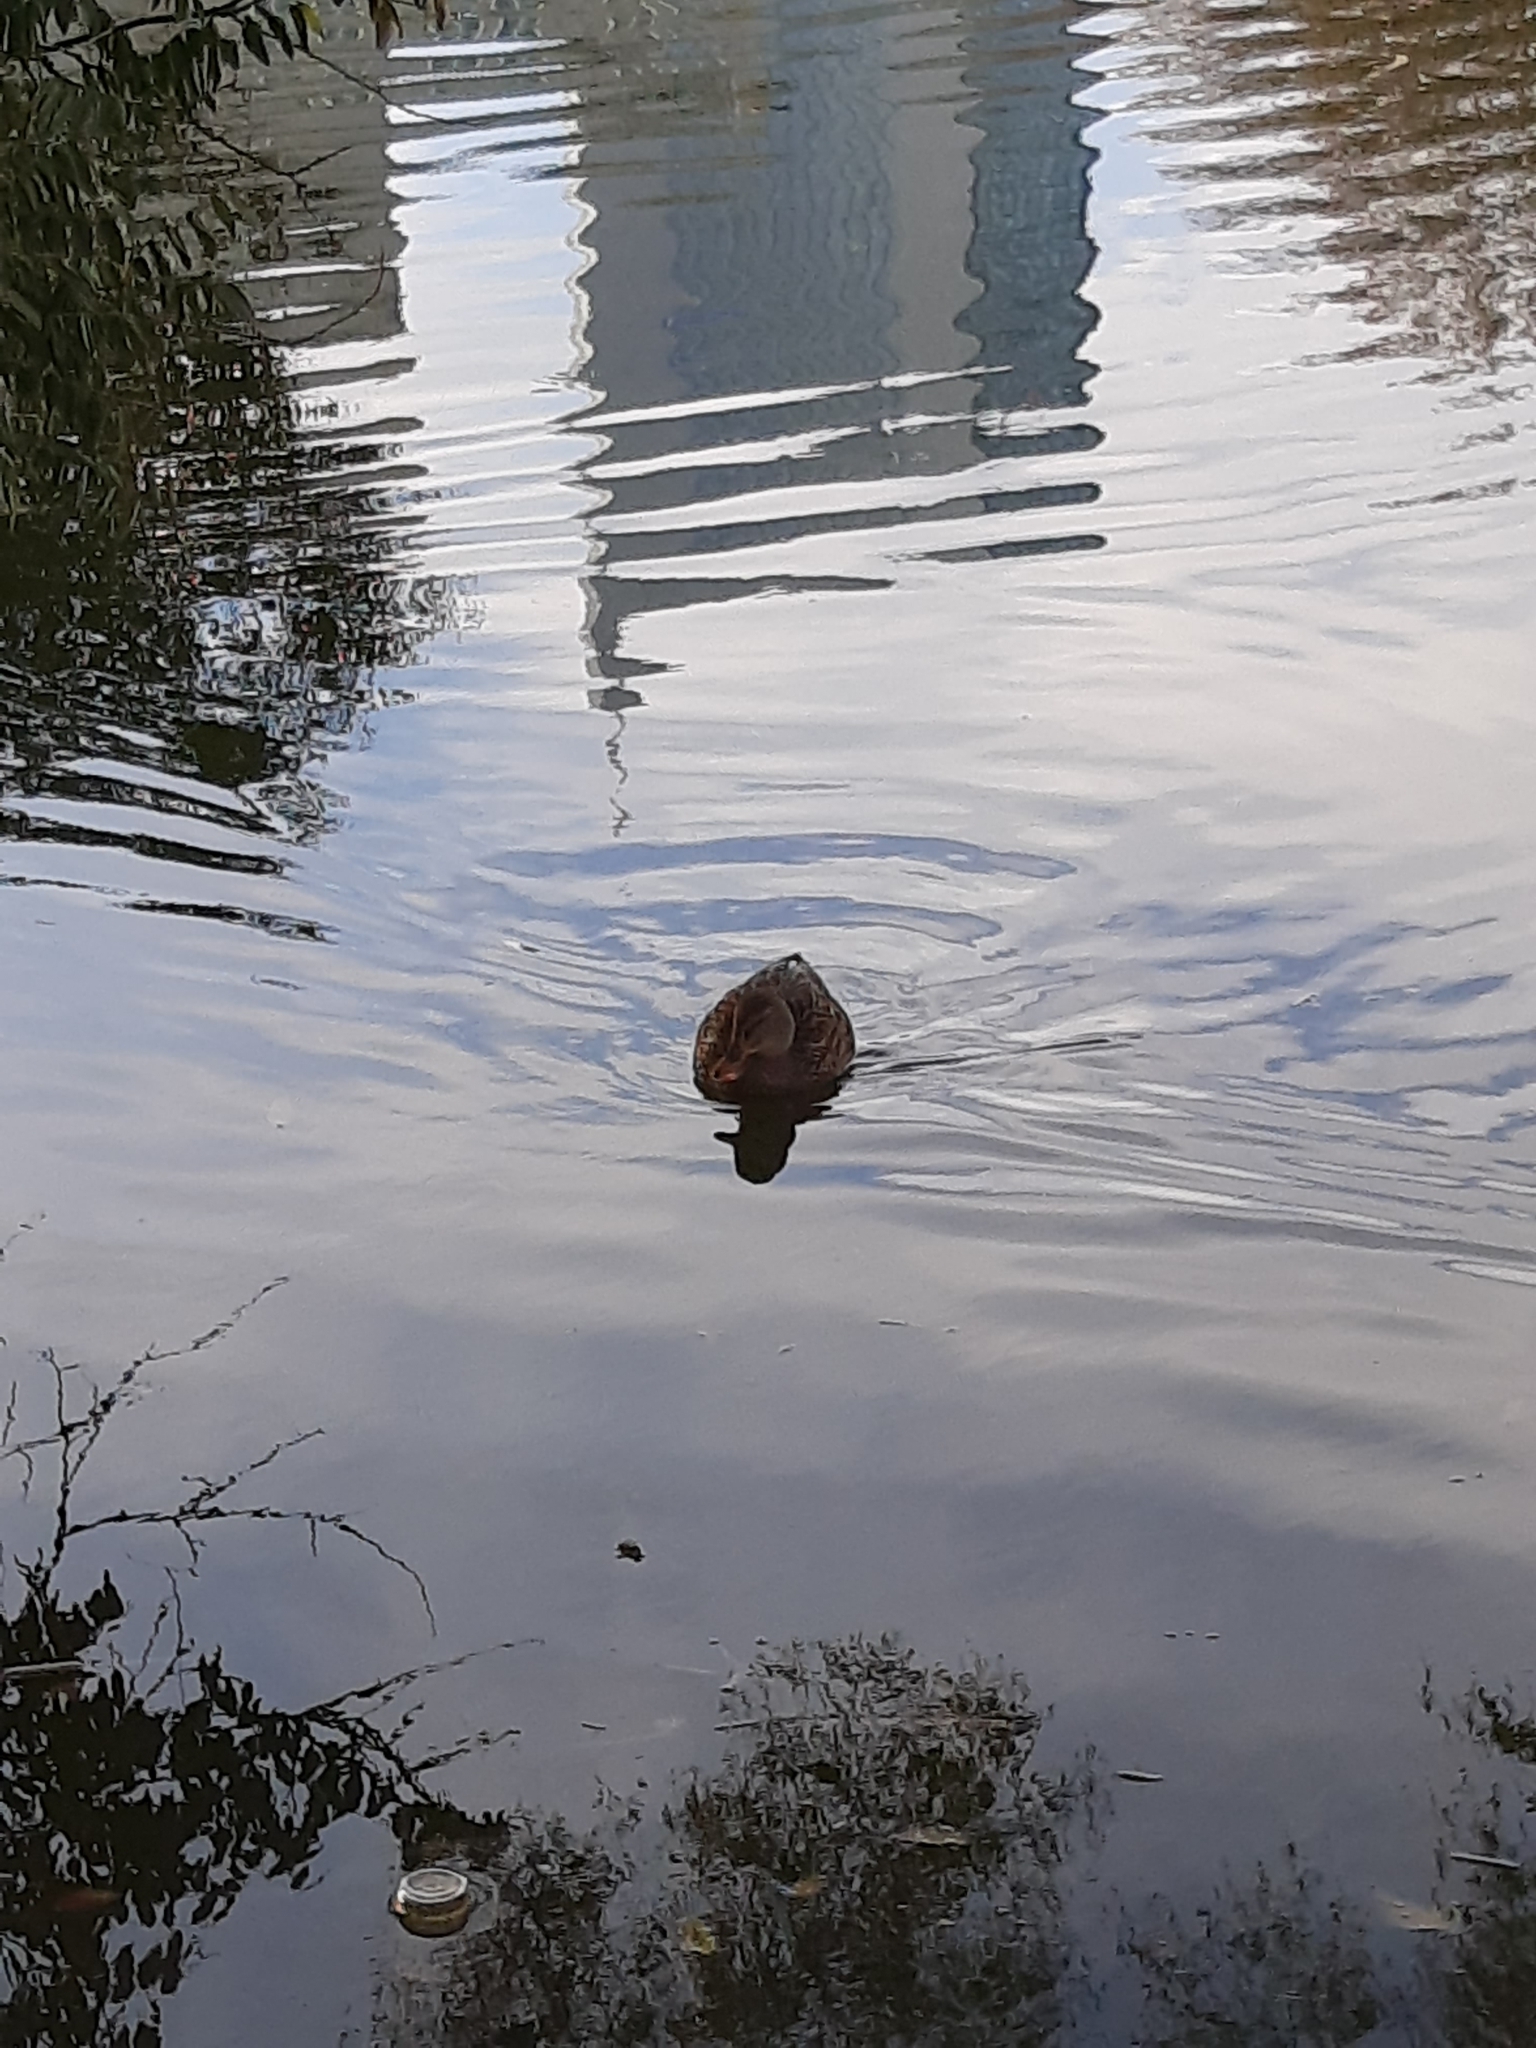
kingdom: Animalia
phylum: Chordata
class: Aves
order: Anseriformes
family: Anatidae
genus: Anas
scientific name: Anas platyrhynchos
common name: Mallard
